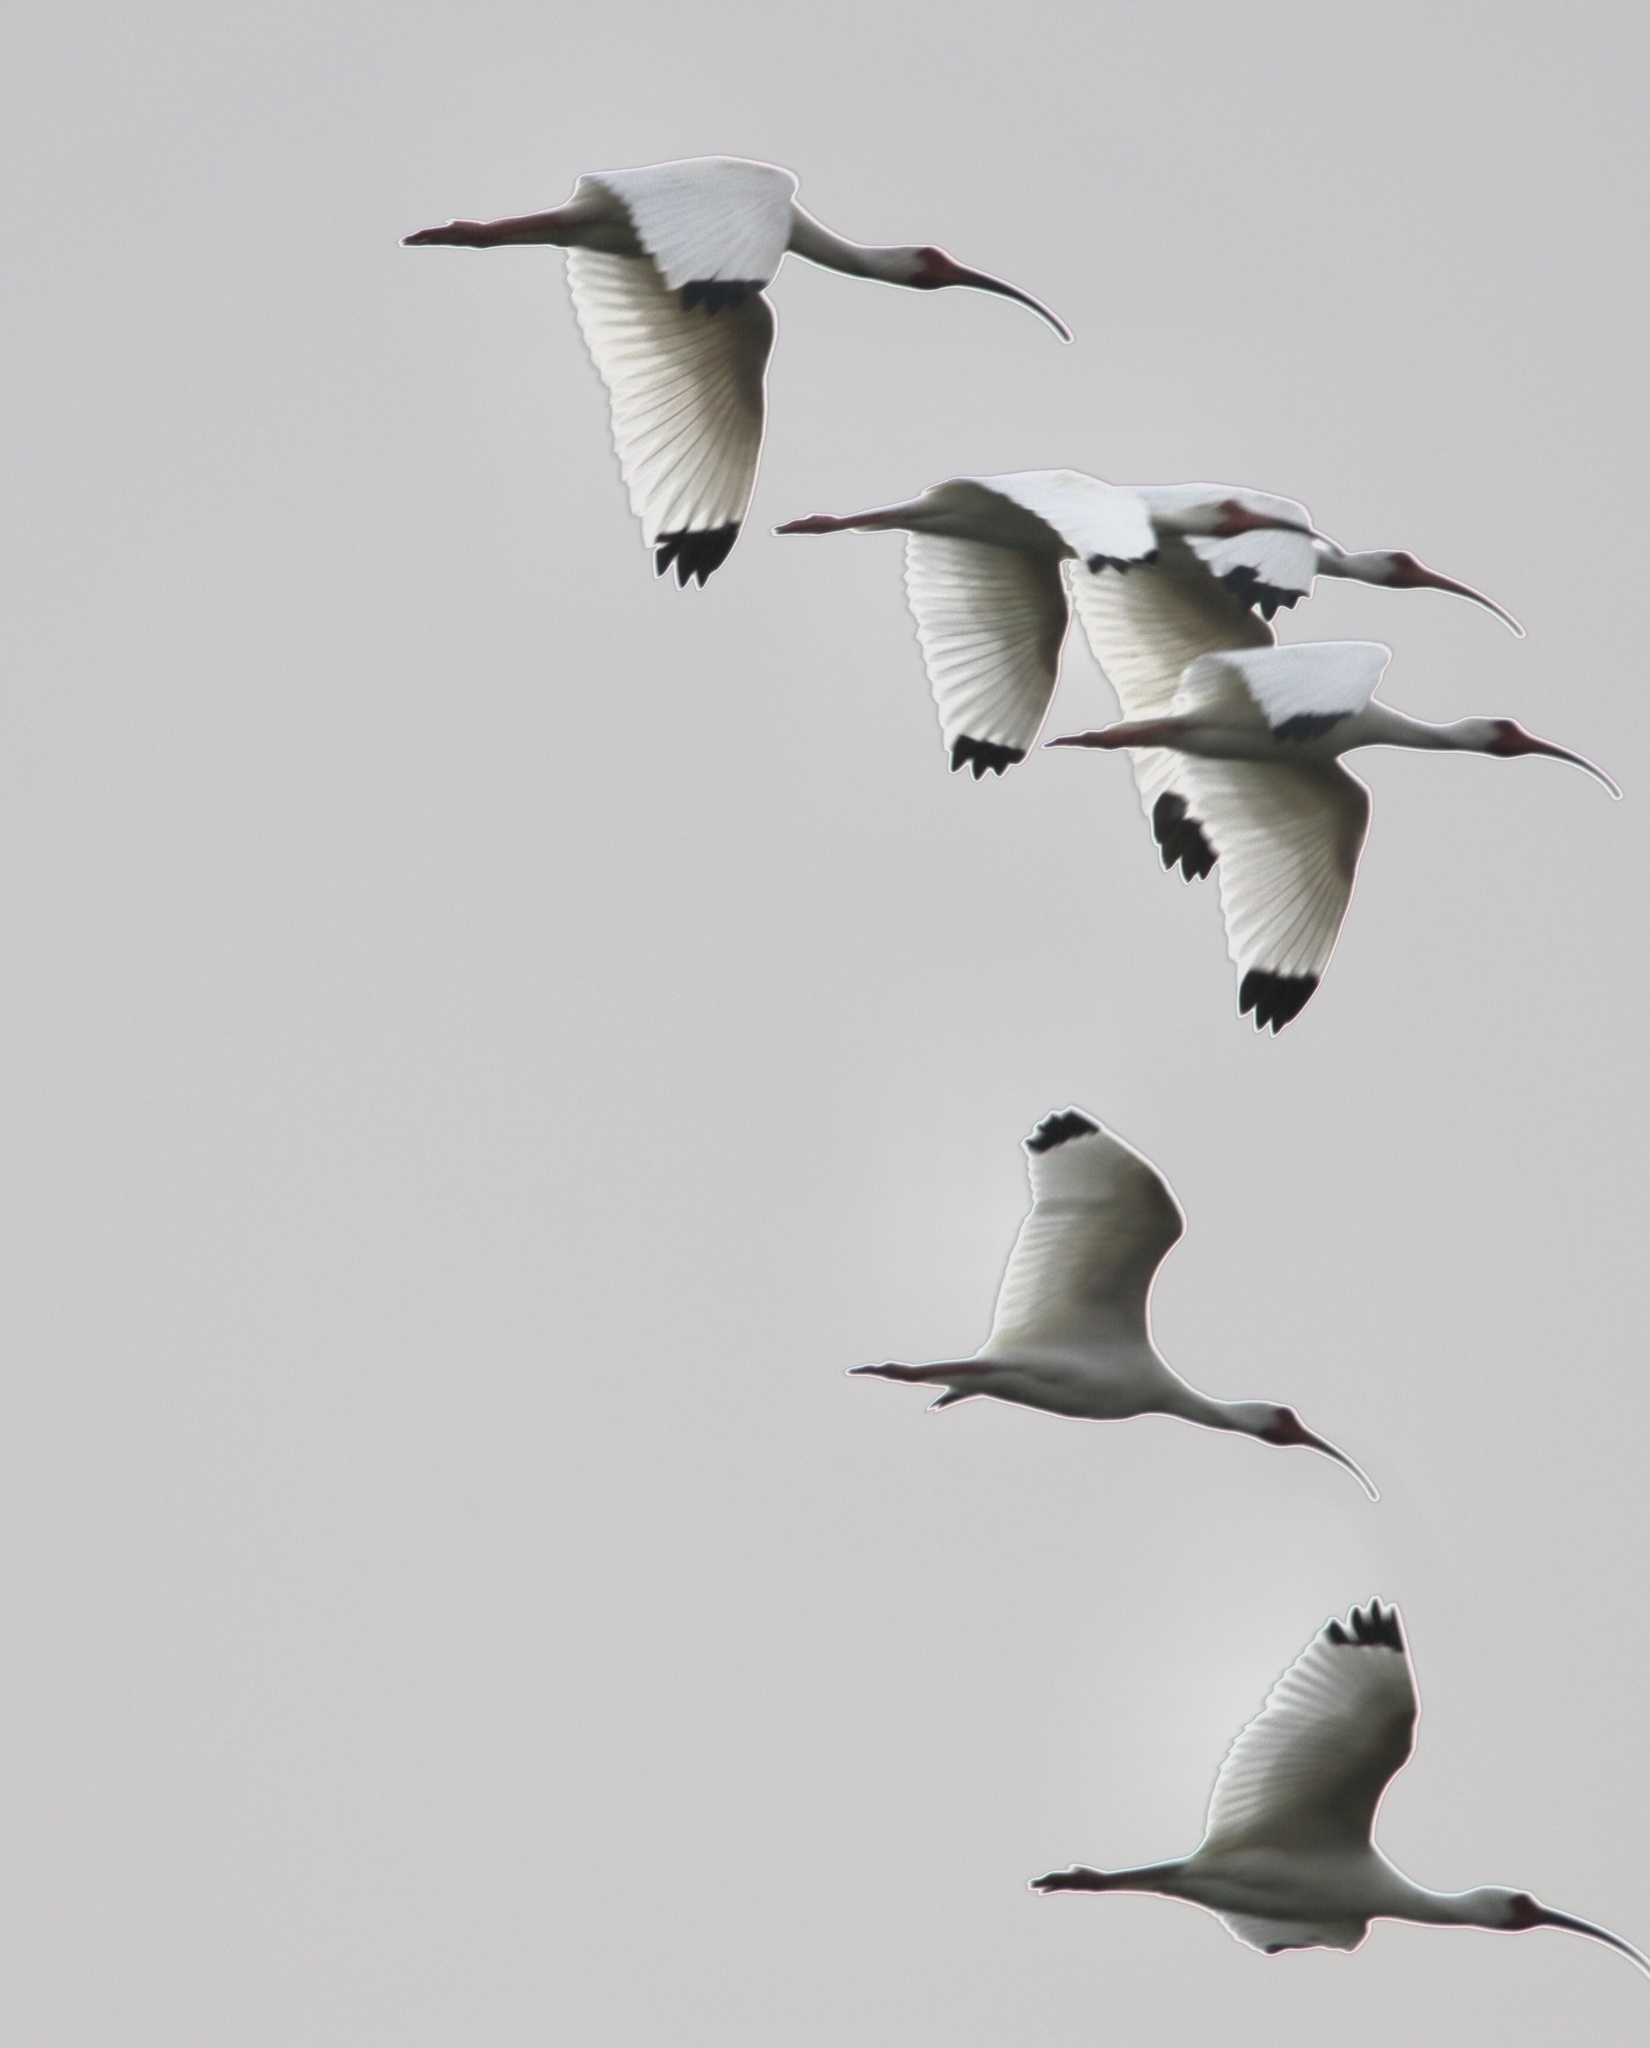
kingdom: Animalia
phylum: Chordata
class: Aves
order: Pelecaniformes
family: Threskiornithidae
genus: Eudocimus
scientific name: Eudocimus albus
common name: White ibis
